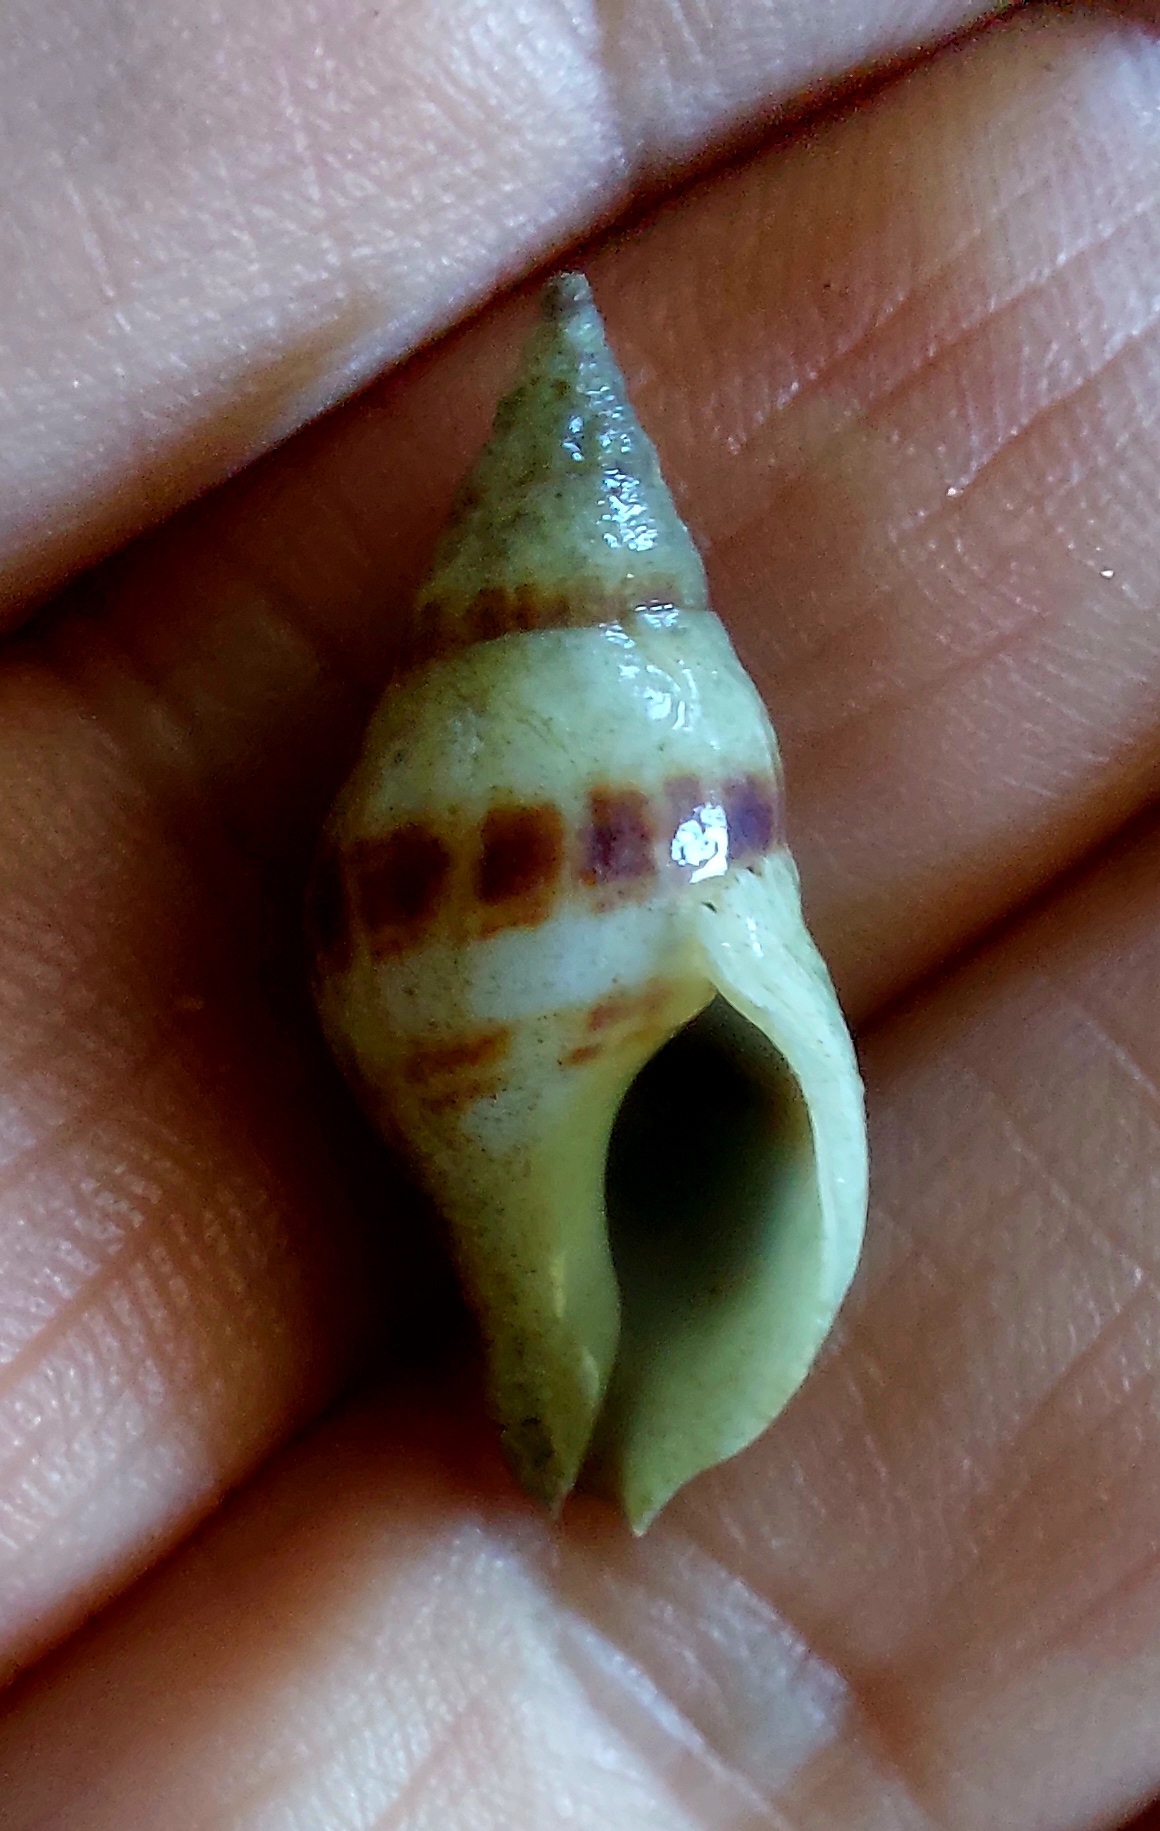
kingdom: Animalia
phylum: Mollusca
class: Gastropoda
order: Neogastropoda
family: Tudiclidae
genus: Buccinulum
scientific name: Buccinulum vittatum
